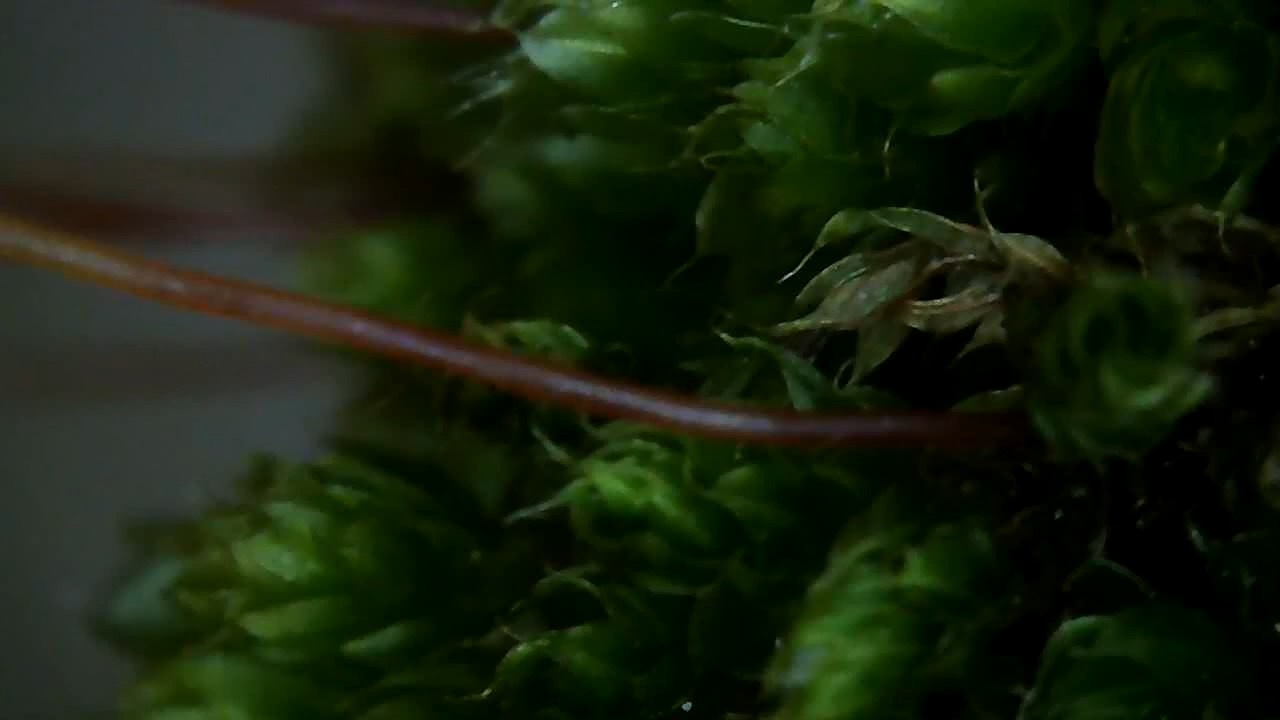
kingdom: Plantae
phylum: Bryophyta
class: Bryopsida
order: Bryales
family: Bryaceae
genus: Rosulabryum
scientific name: Rosulabryum capillare
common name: Capillary thread-moss
